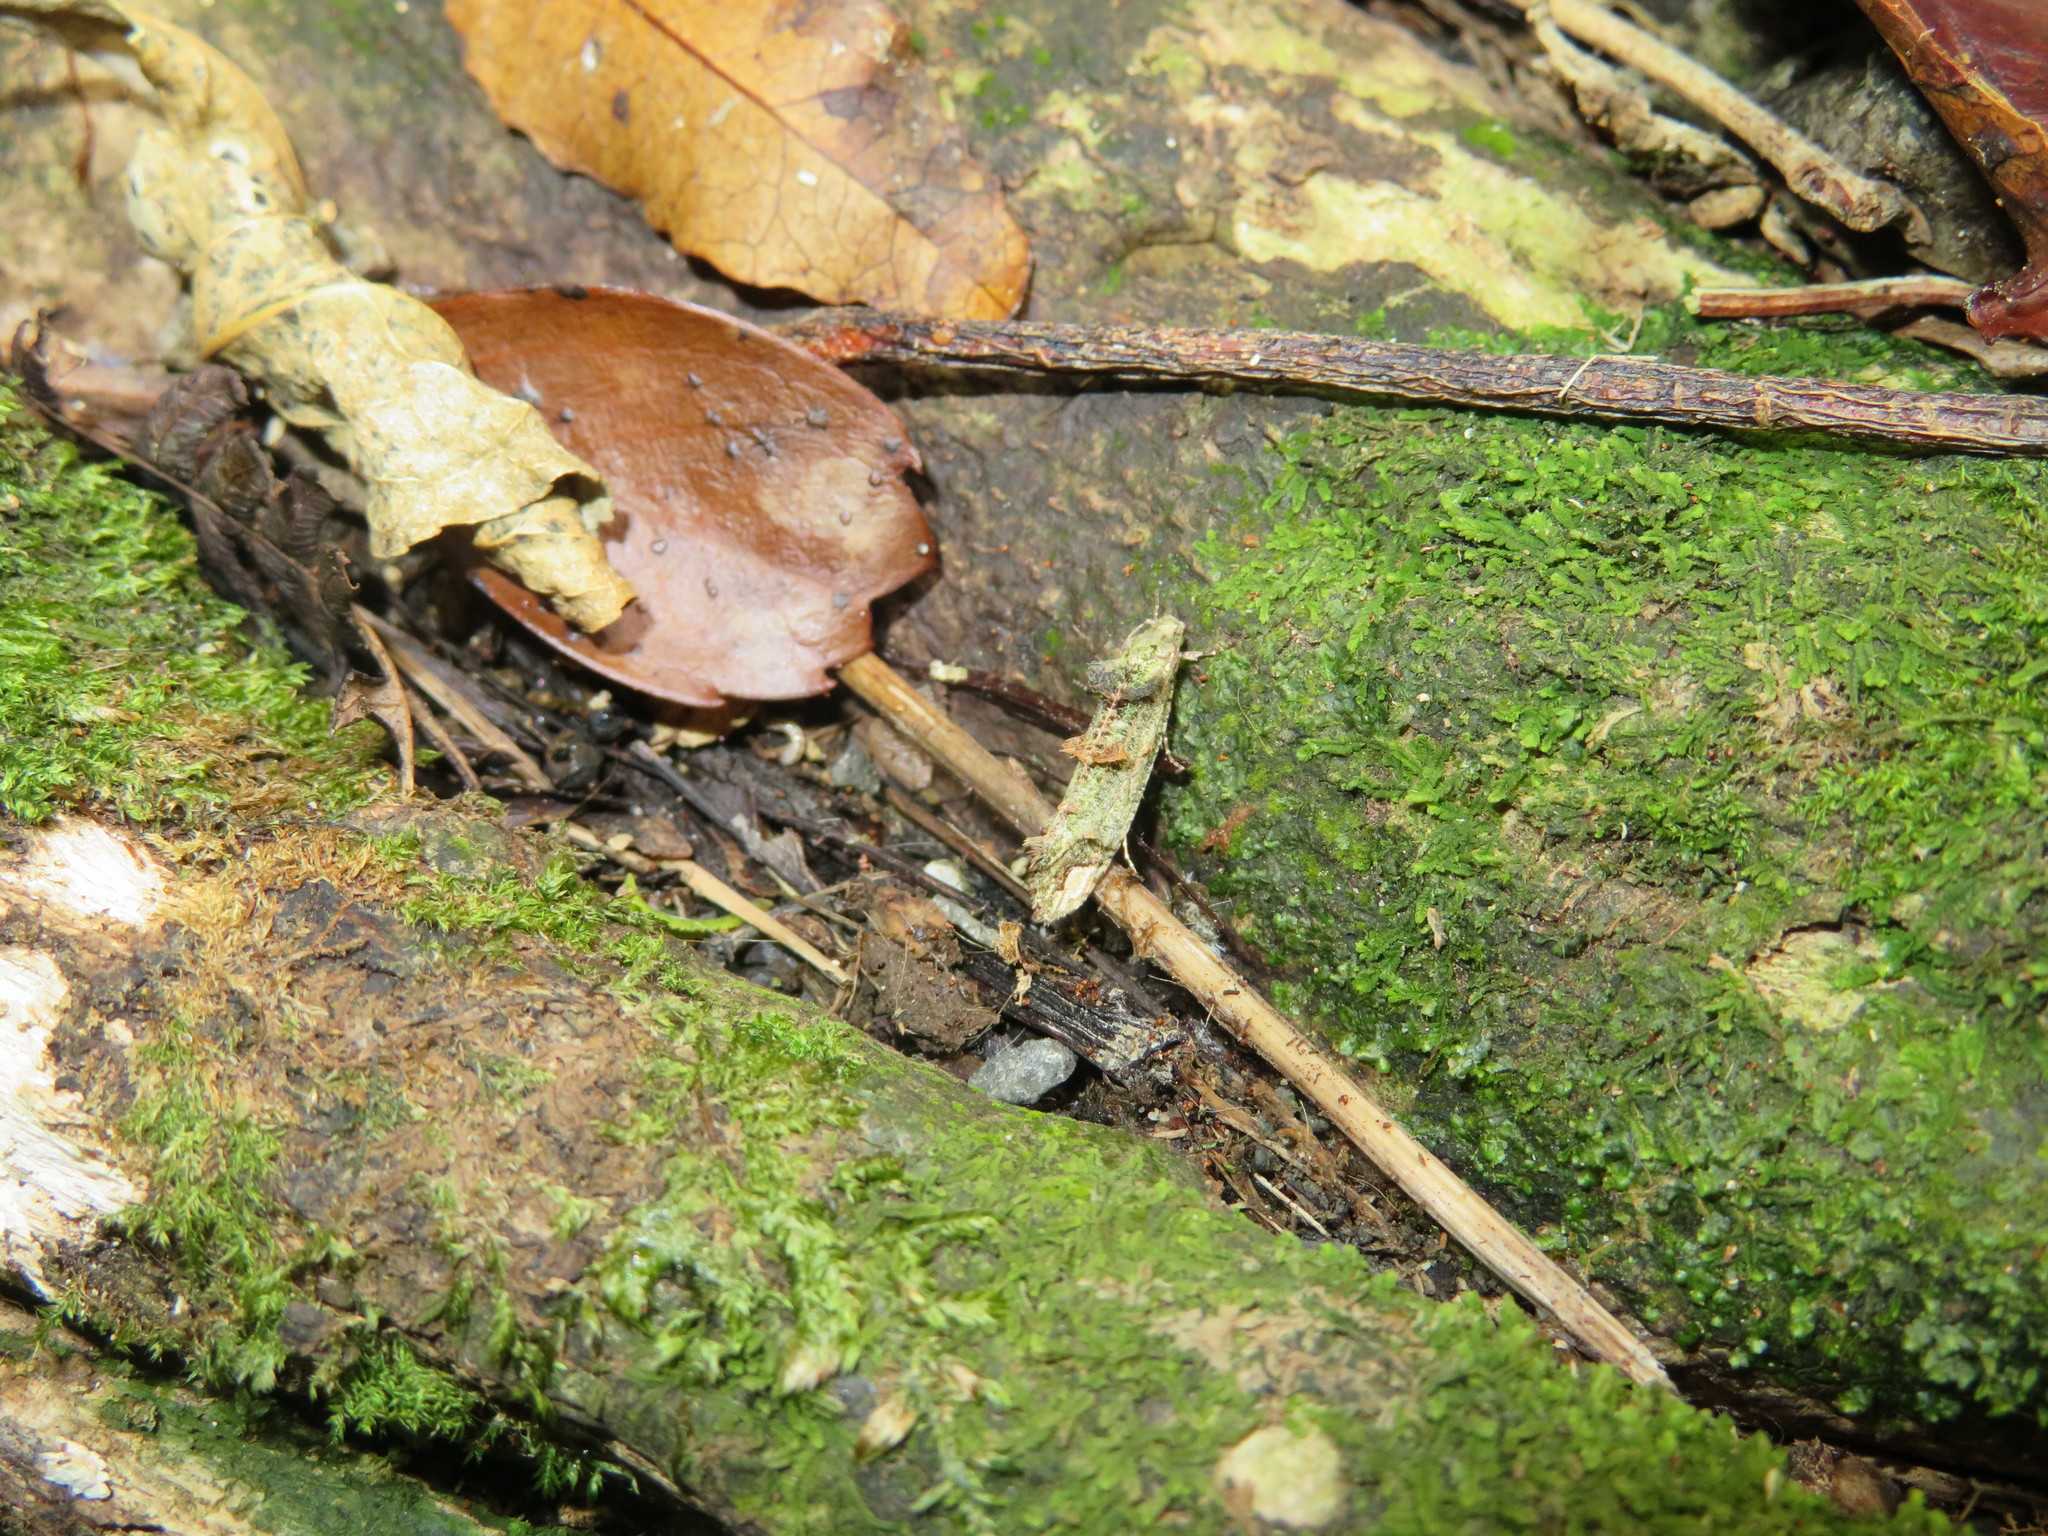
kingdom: Animalia
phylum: Arthropoda
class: Insecta
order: Lepidoptera
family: Tineidae
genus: Lysiphragma
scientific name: Lysiphragma mixochlora
